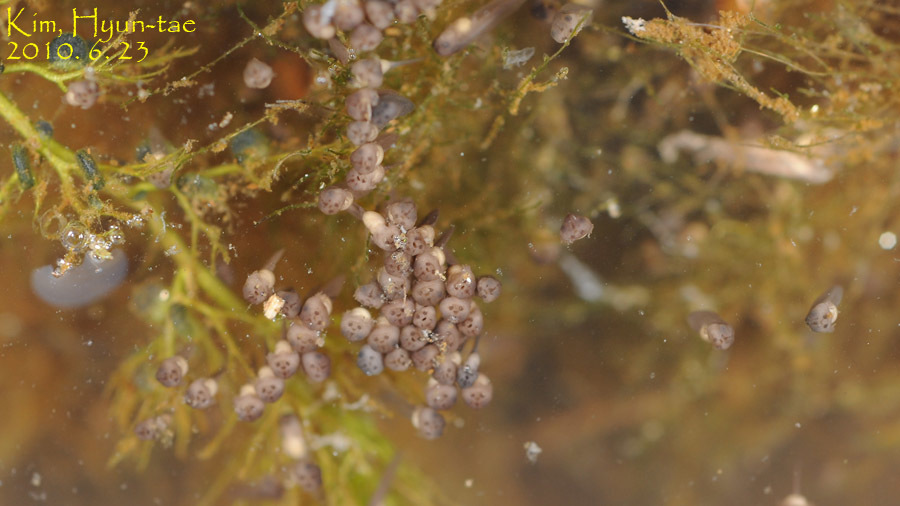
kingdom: Animalia
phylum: Chordata
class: Amphibia
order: Anura
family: Microhylidae
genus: Kaloula
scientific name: Kaloula borealis
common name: Boreal digging frog
